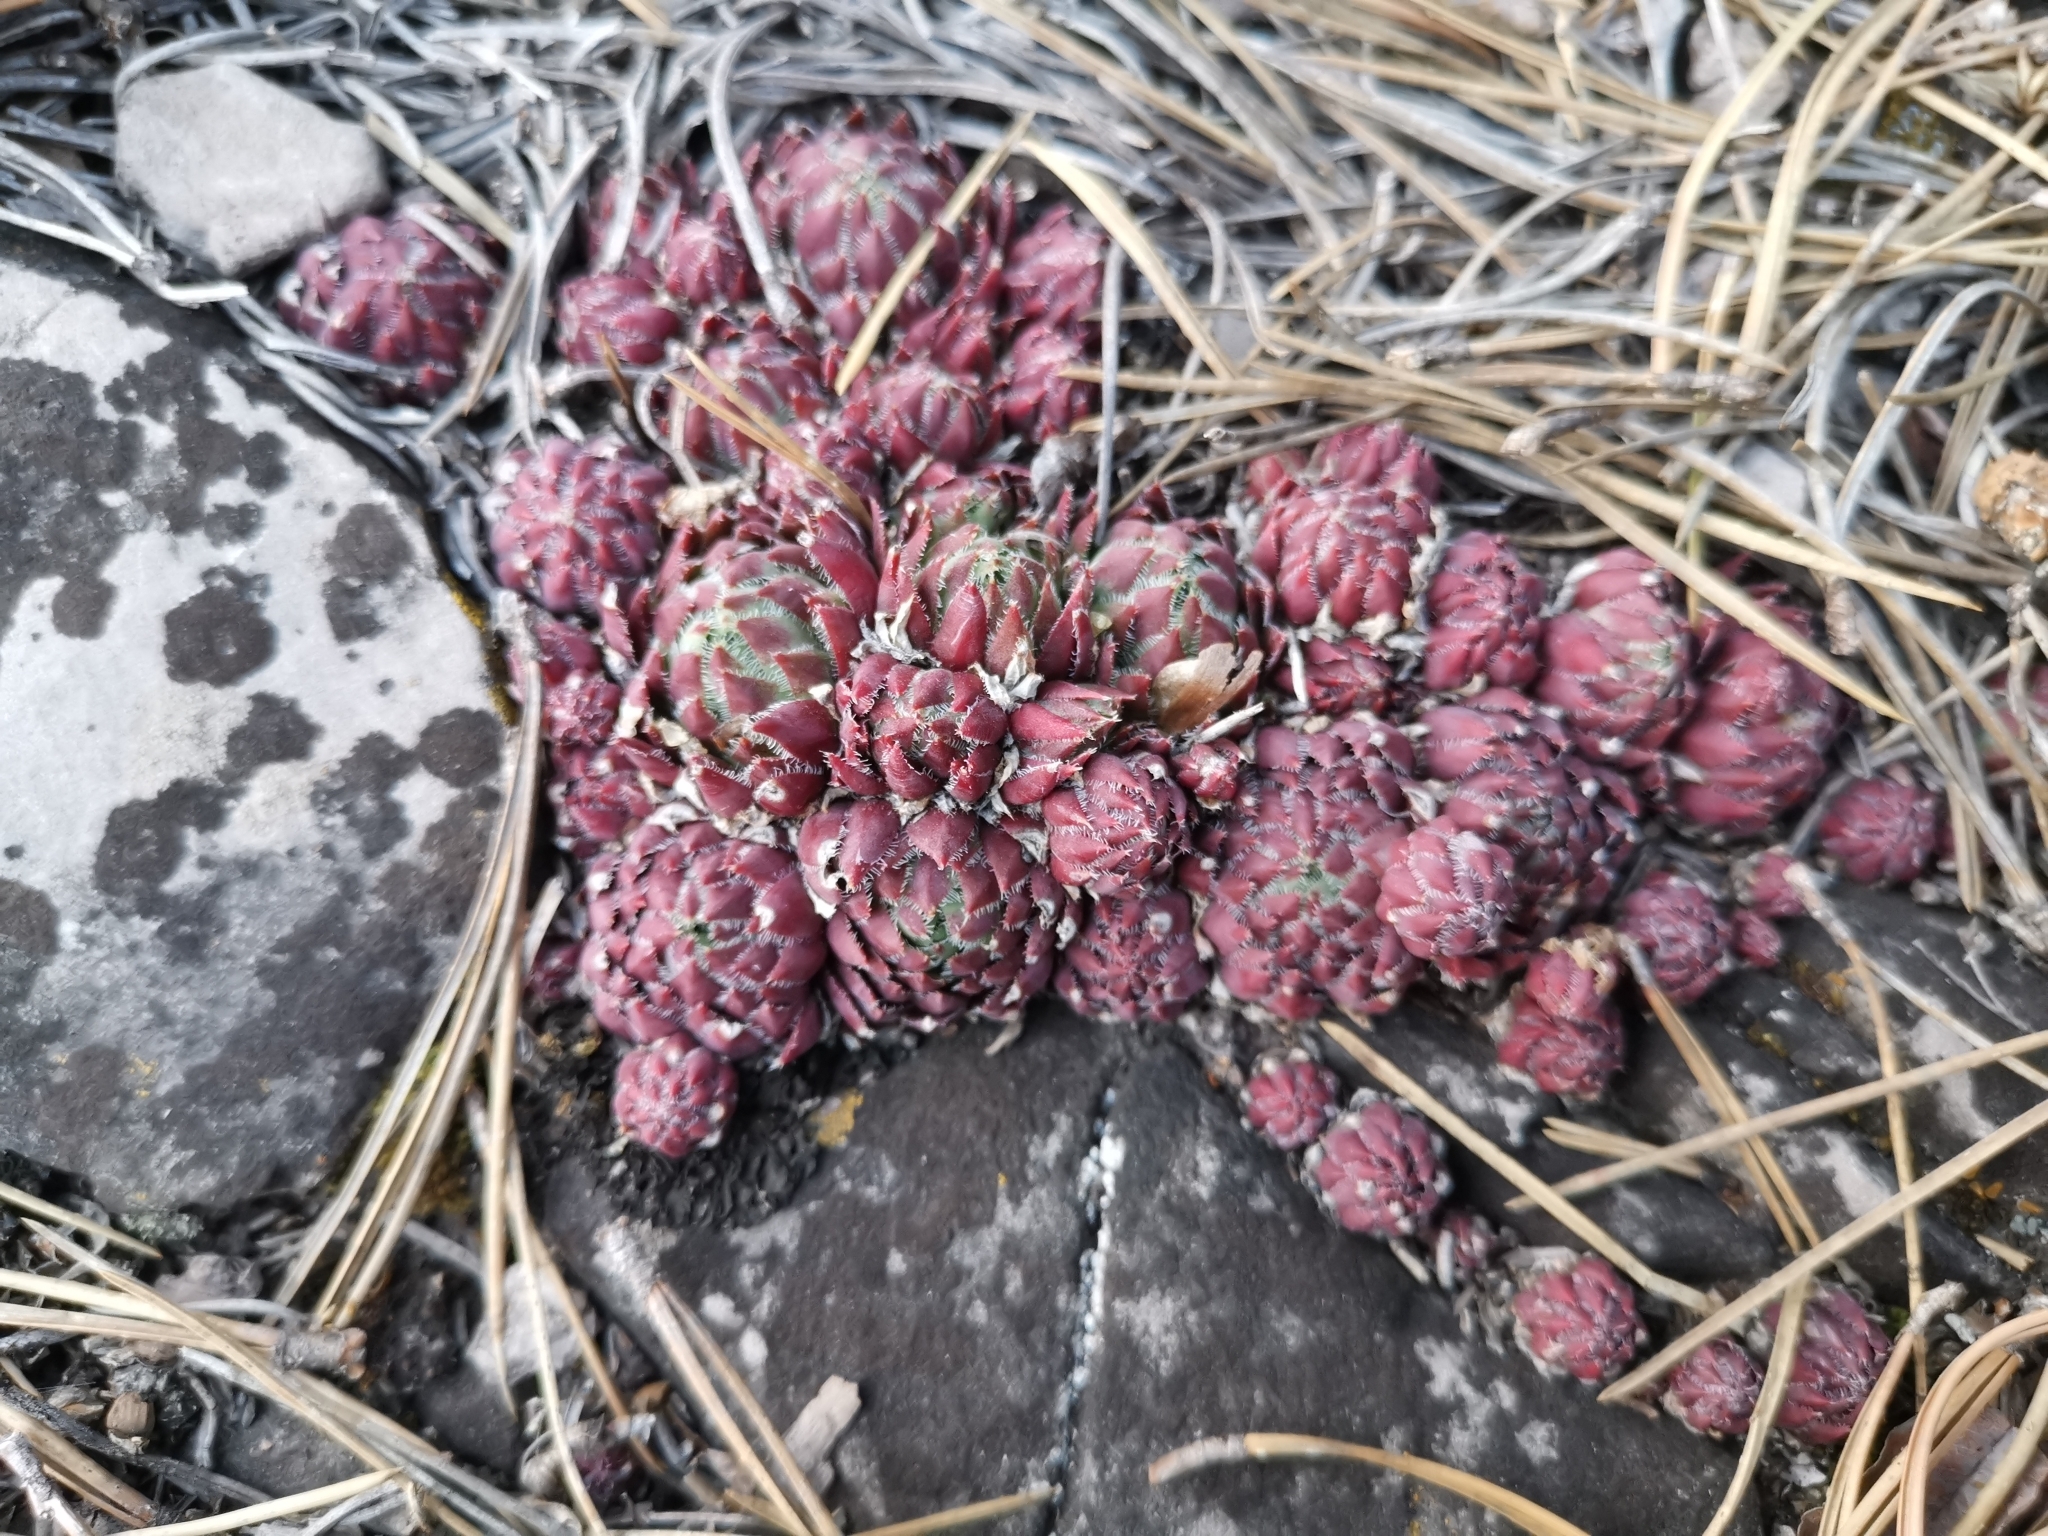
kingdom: Plantae
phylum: Tracheophyta
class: Magnoliopsida
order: Saxifragales
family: Crassulaceae
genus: Sempervivum
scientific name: Sempervivum globiferum
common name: Rolling hen-and-chicks
